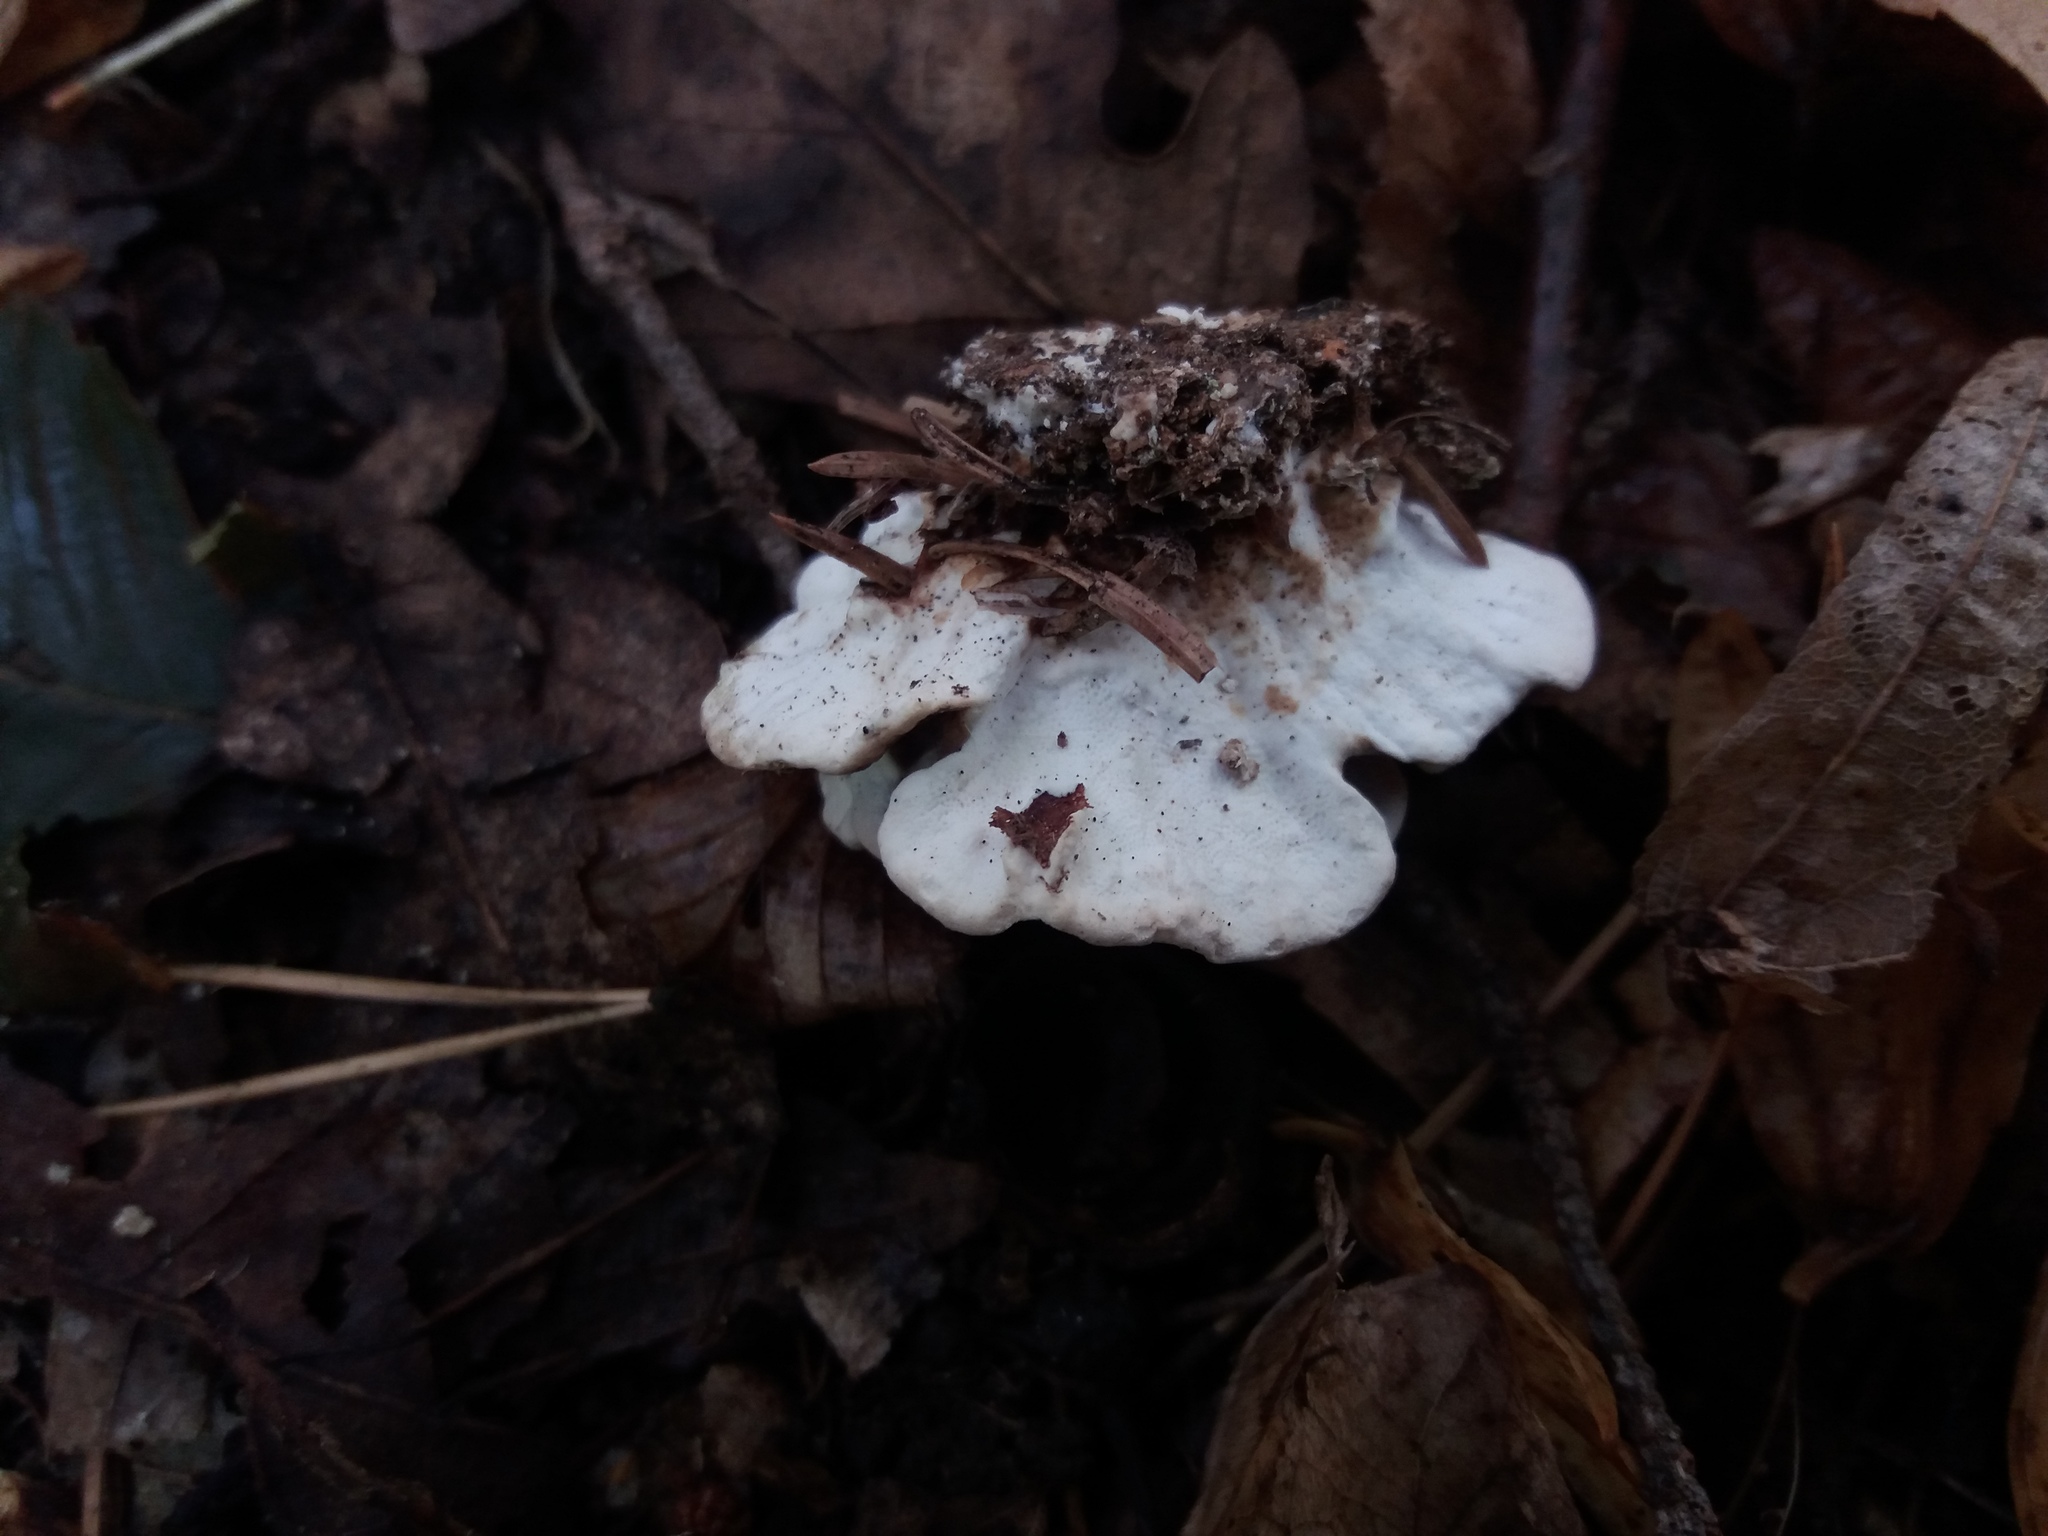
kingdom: Fungi
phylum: Basidiomycota
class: Agaricomycetes
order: Polyporales
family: Polyporaceae
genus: Trametes
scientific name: Trametes versicolor
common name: Turkeytail
